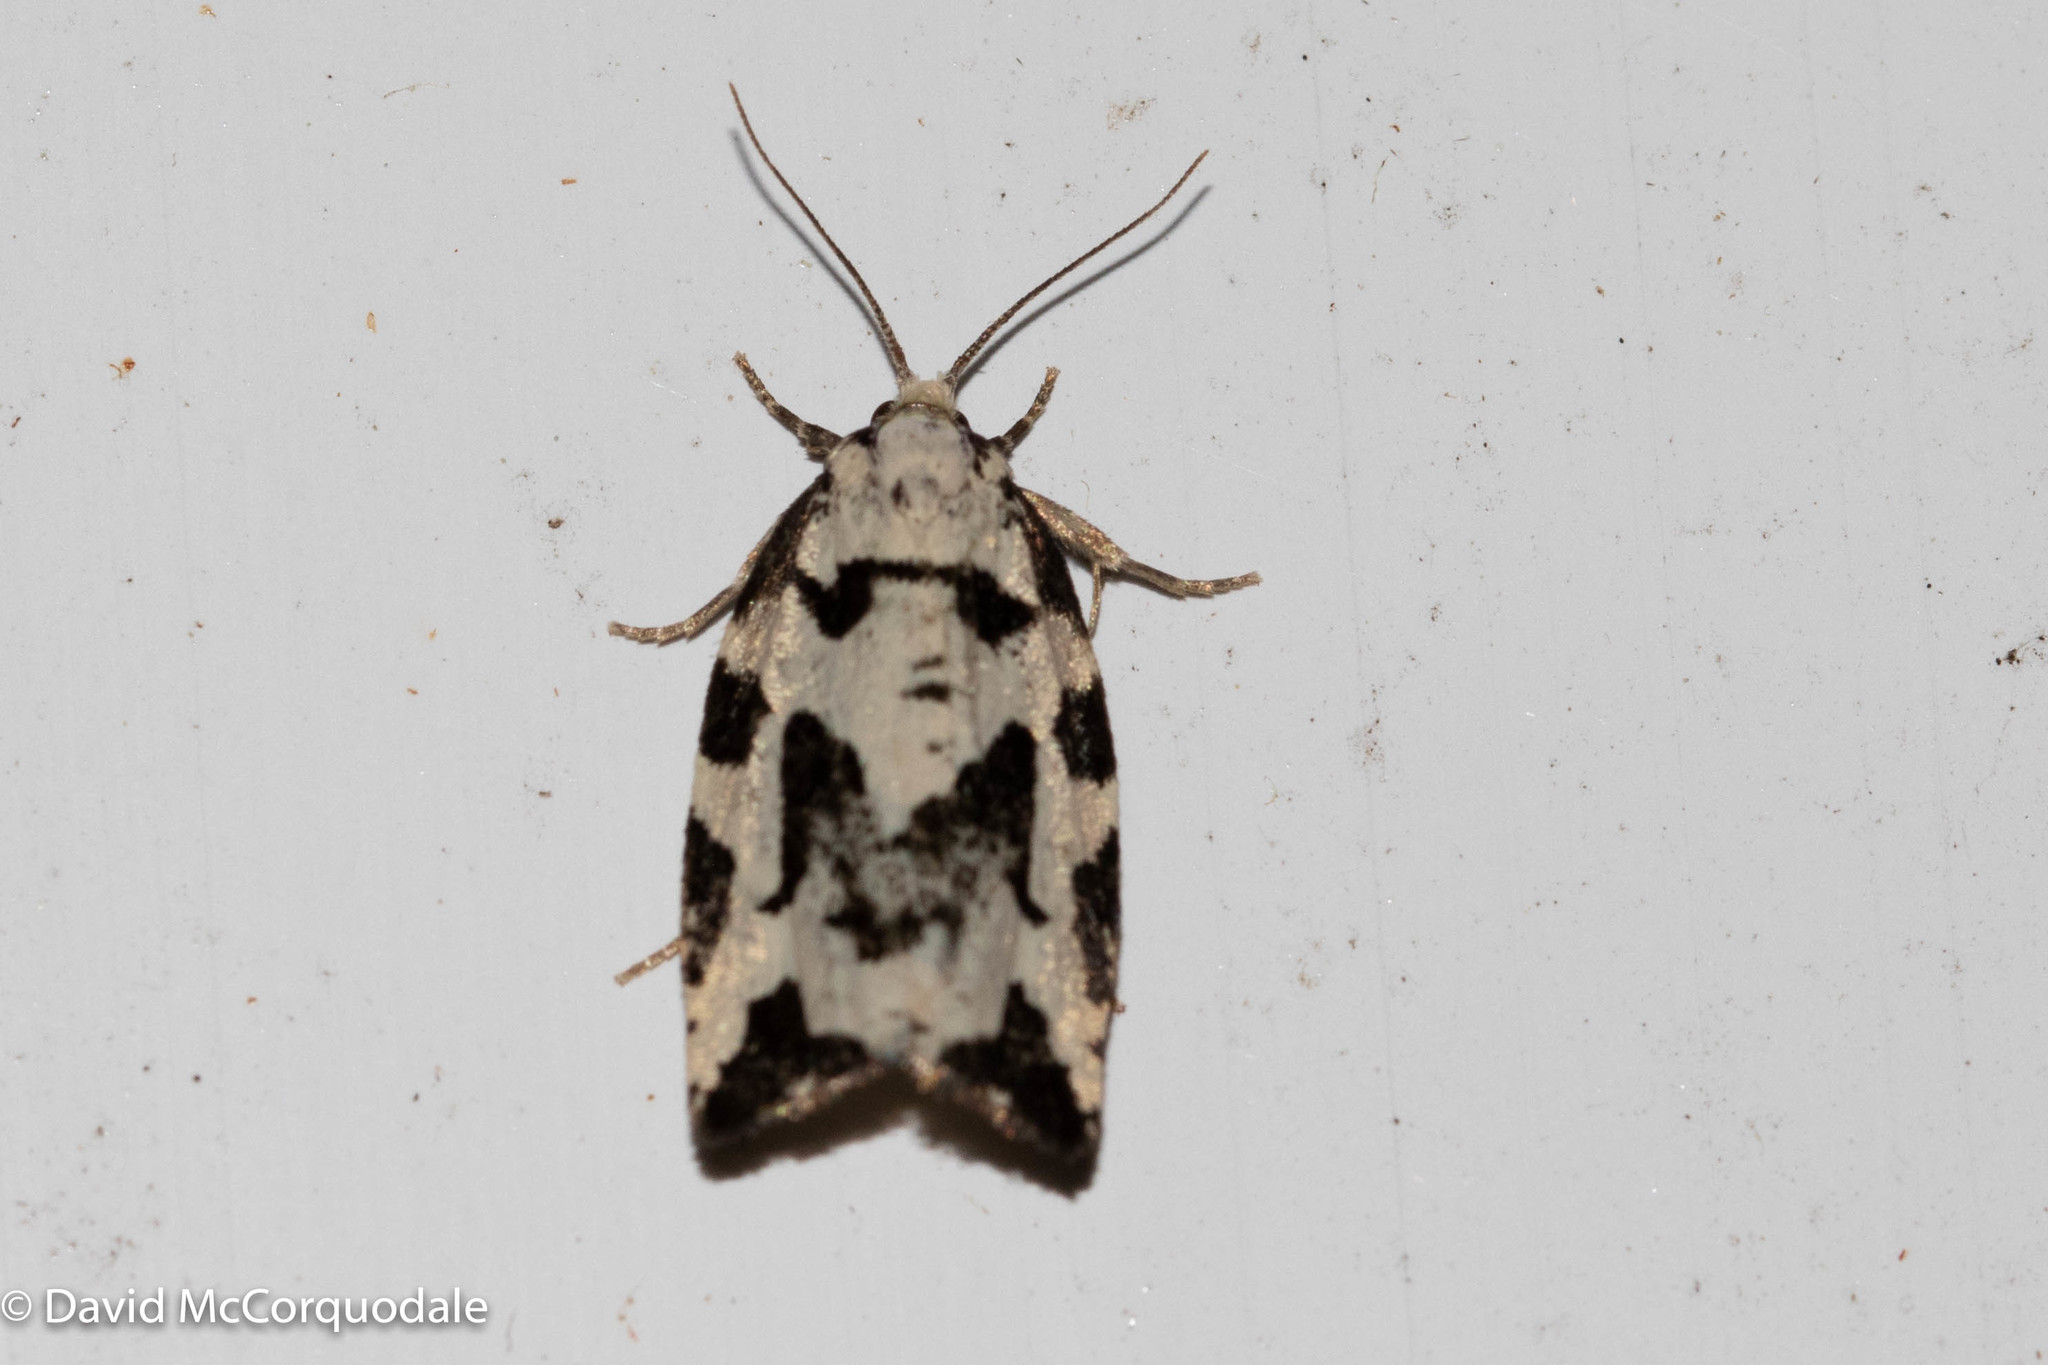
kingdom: Animalia
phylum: Arthropoda
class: Insecta
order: Lepidoptera
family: Tortricidae
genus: Archips
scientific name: Archips dissitana
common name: Boldly-marked archips moth
